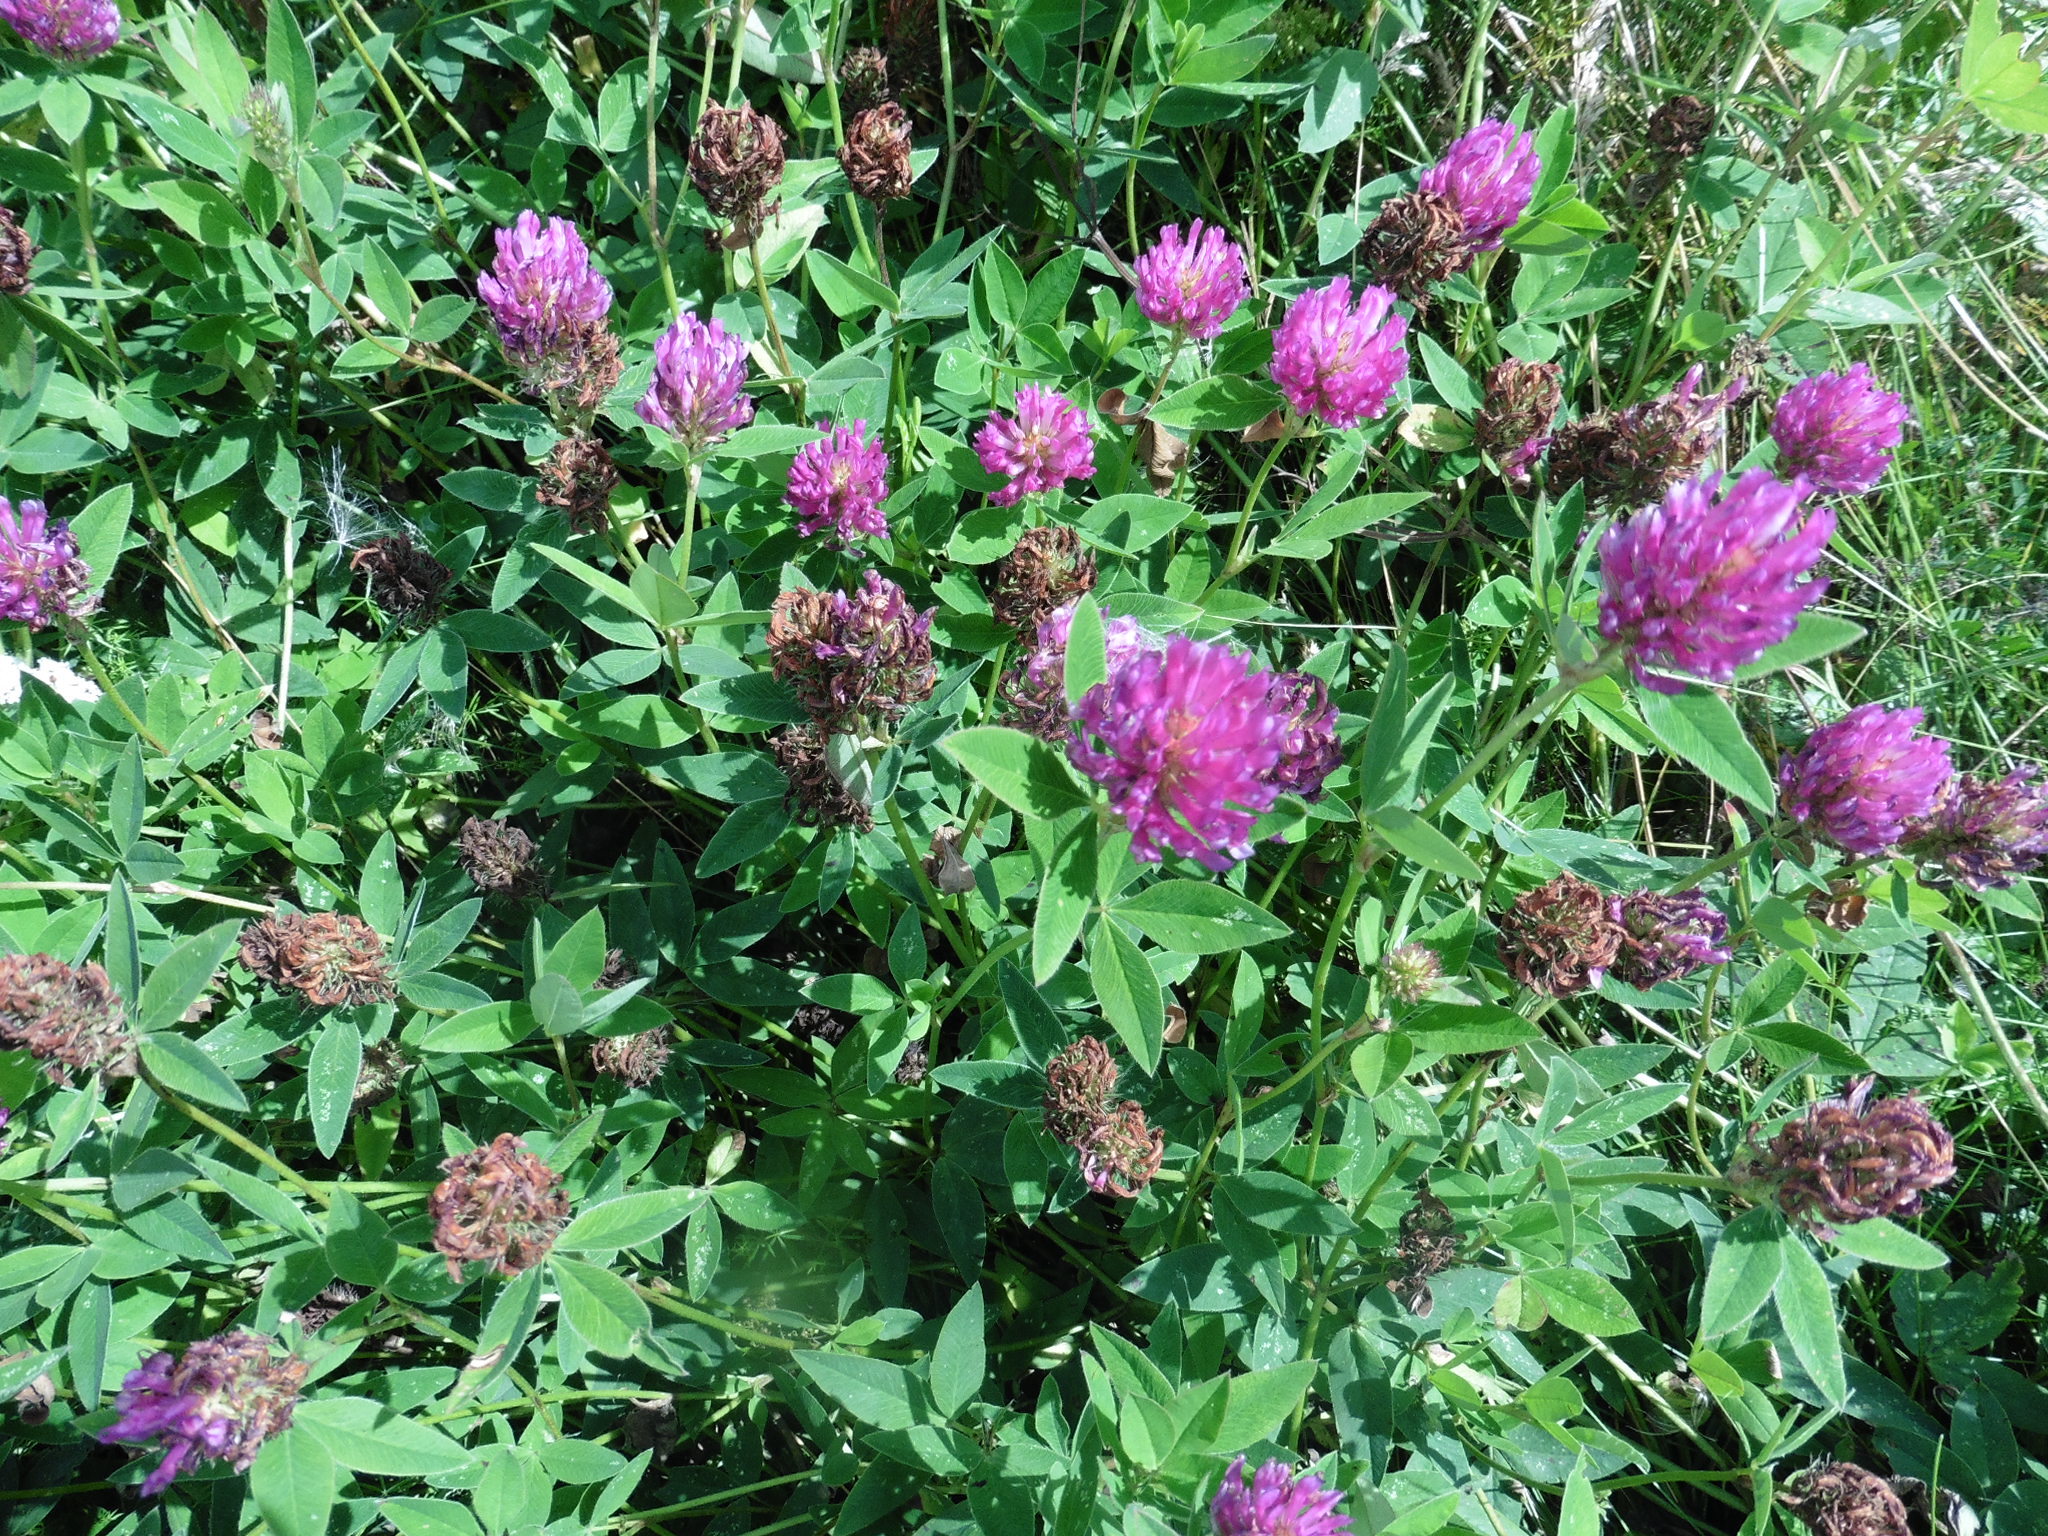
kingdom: Plantae
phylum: Tracheophyta
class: Magnoliopsida
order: Fabales
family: Fabaceae
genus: Trifolium
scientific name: Trifolium medium
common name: Zigzag clover
